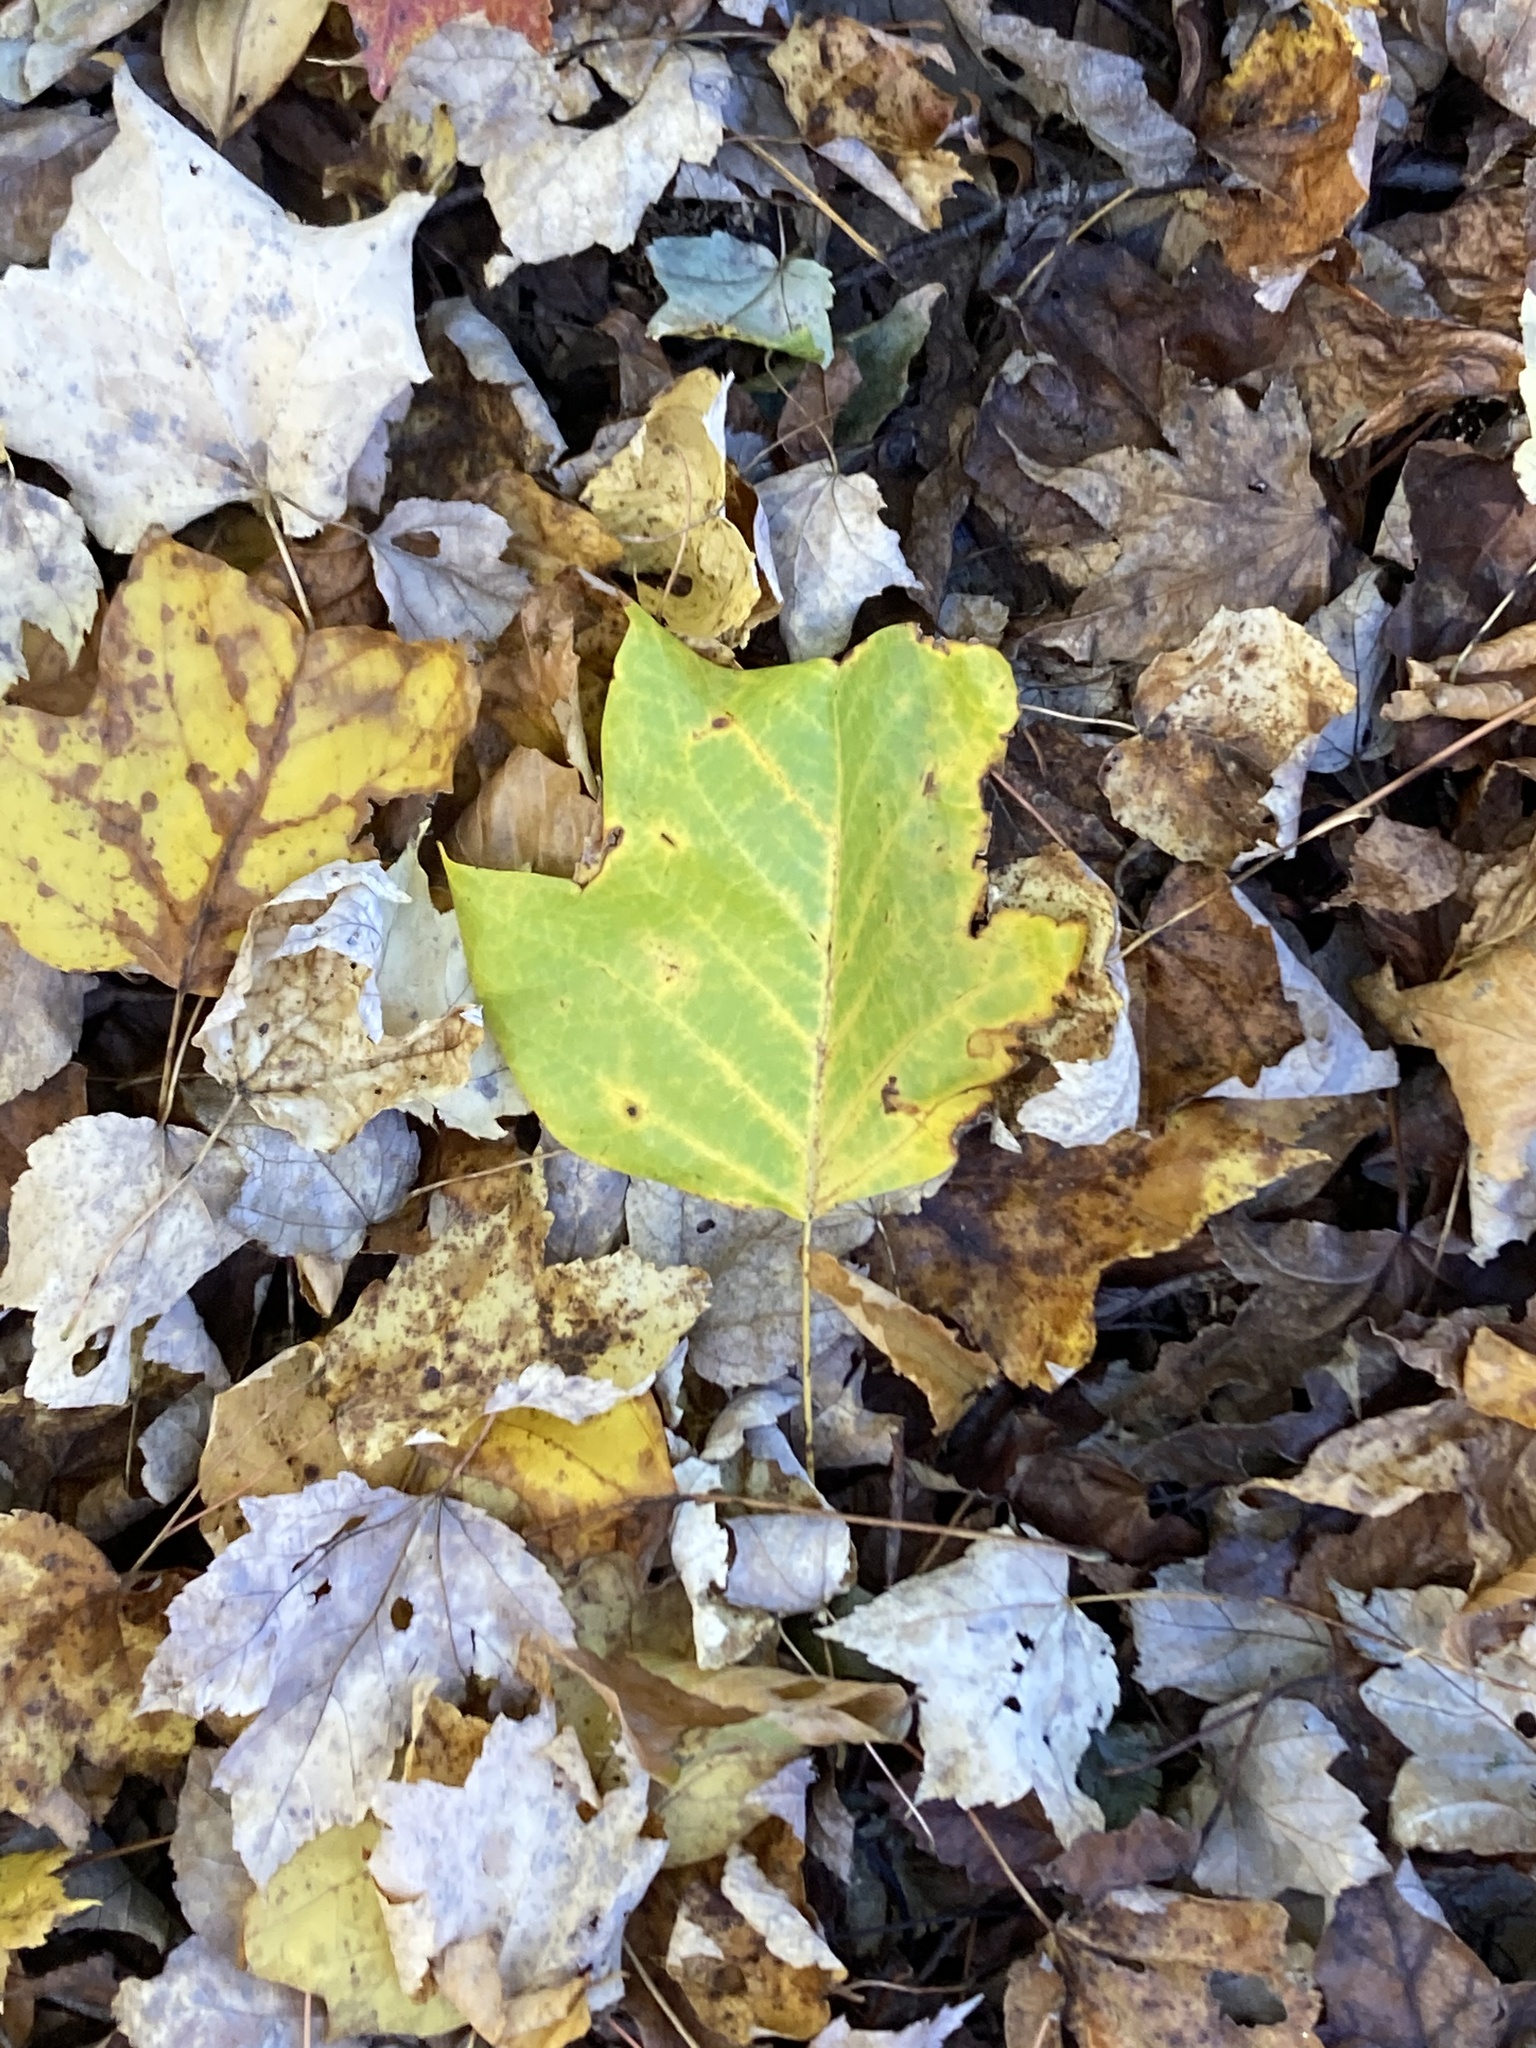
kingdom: Plantae
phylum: Tracheophyta
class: Magnoliopsida
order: Magnoliales
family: Magnoliaceae
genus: Liriodendron
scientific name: Liriodendron tulipifera
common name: Tulip tree
